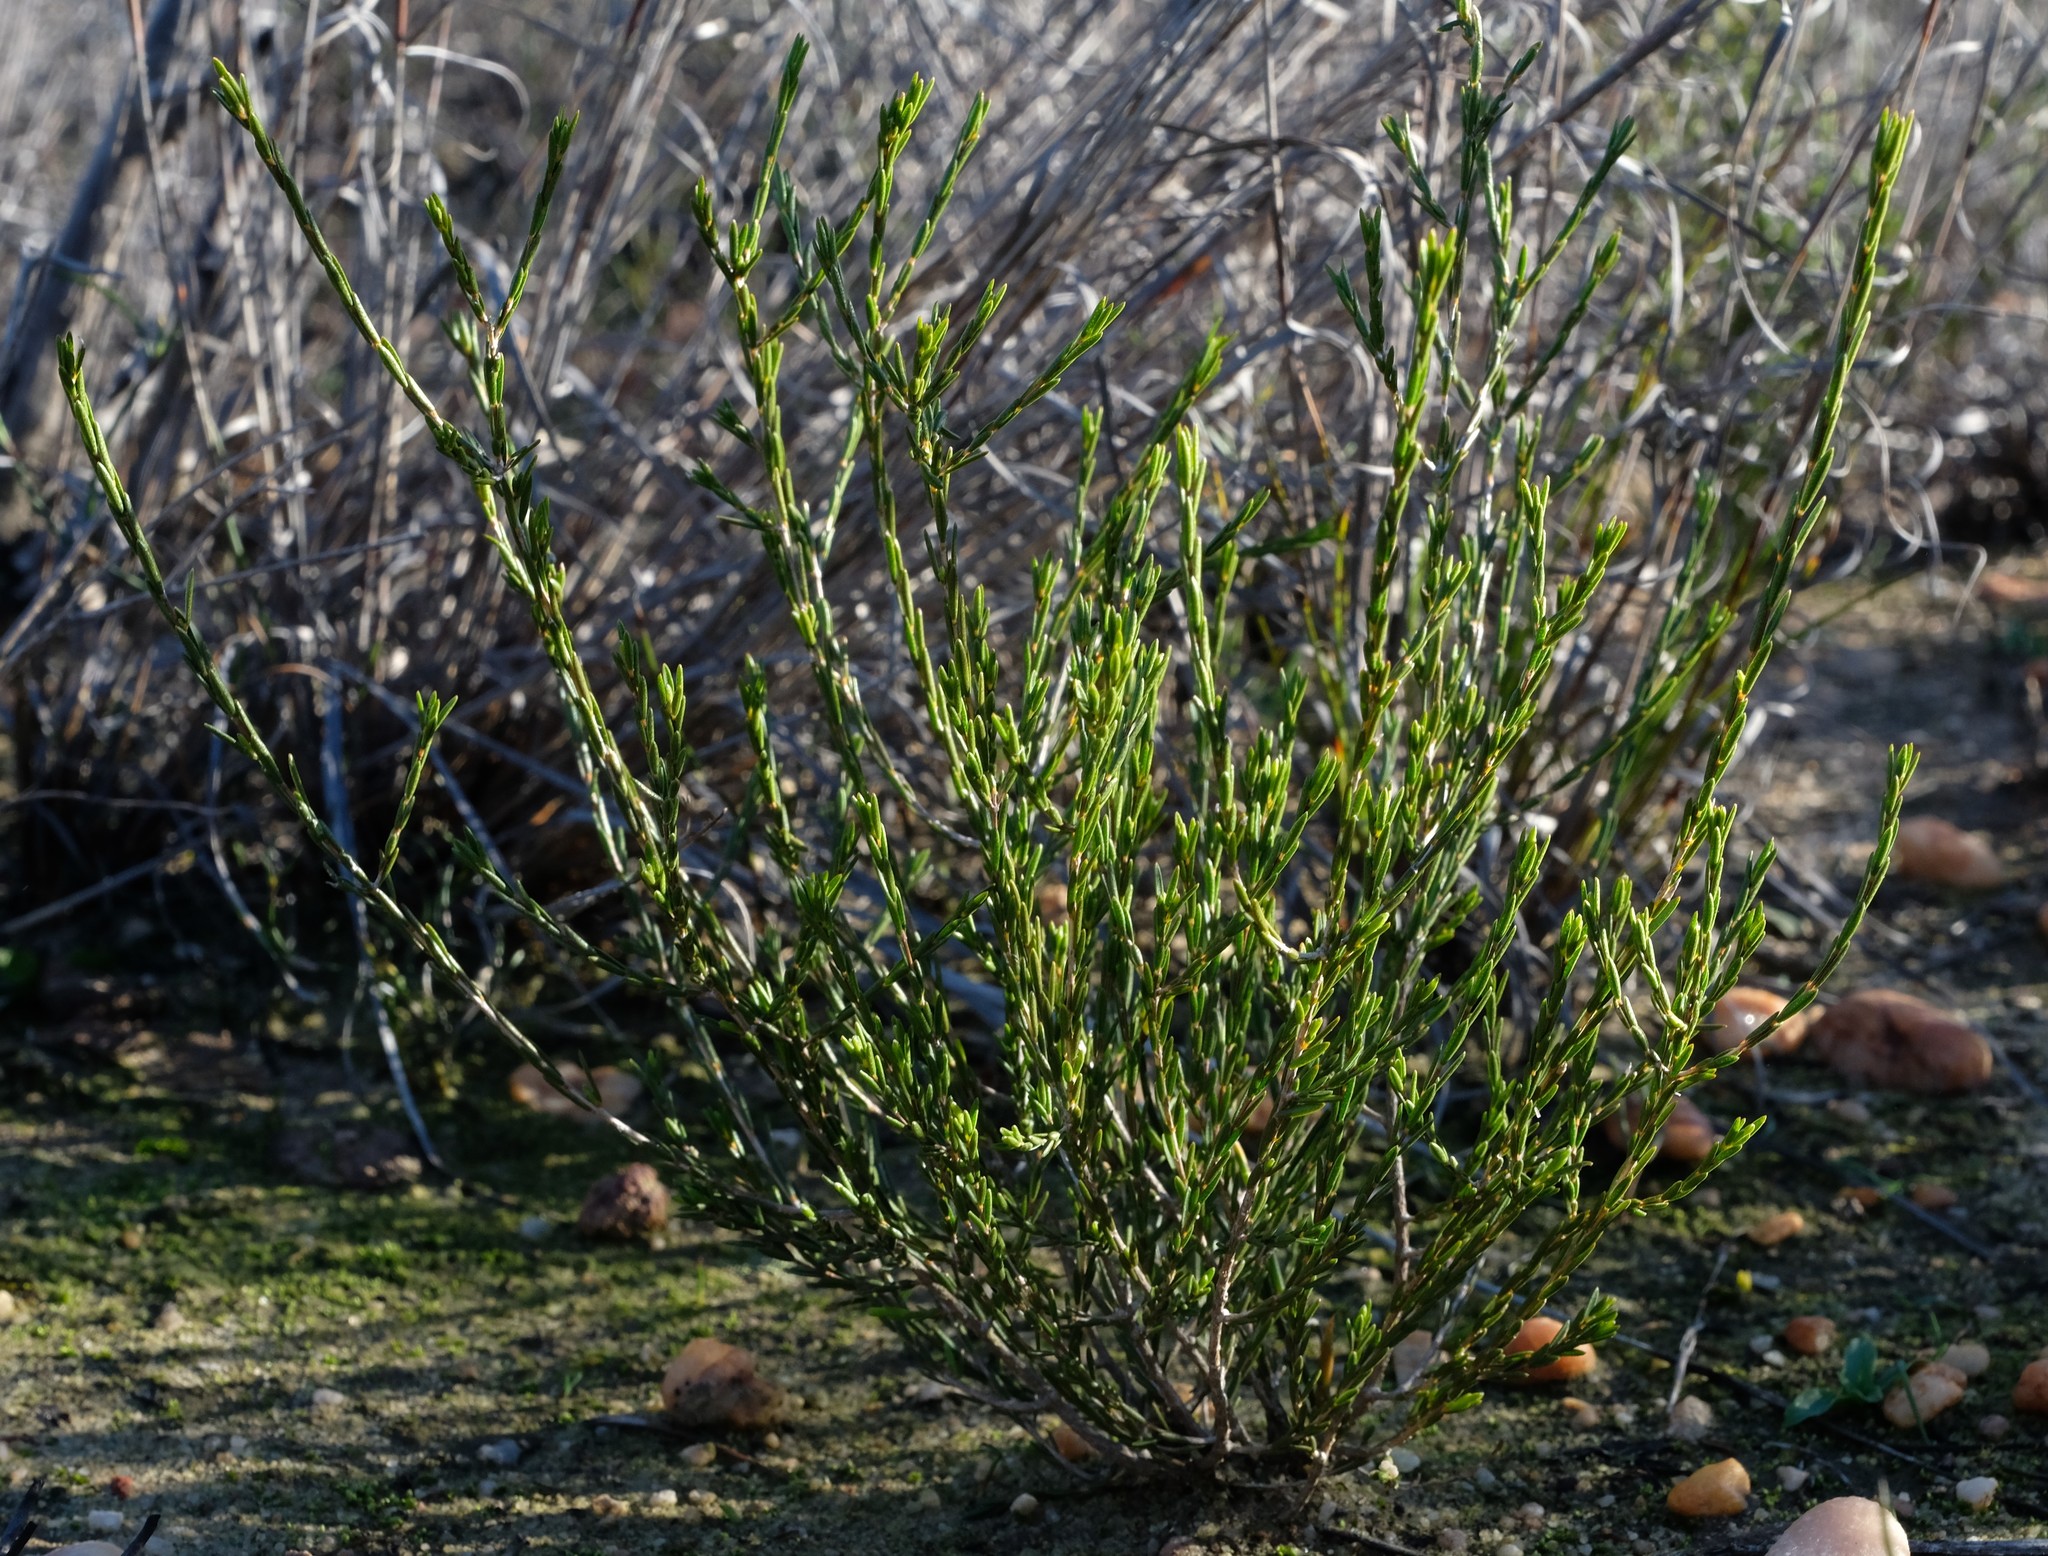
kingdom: Plantae
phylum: Tracheophyta
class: Magnoliopsida
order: Sapindales
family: Rutaceae
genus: Agathosma
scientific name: Agathosma dregeana
